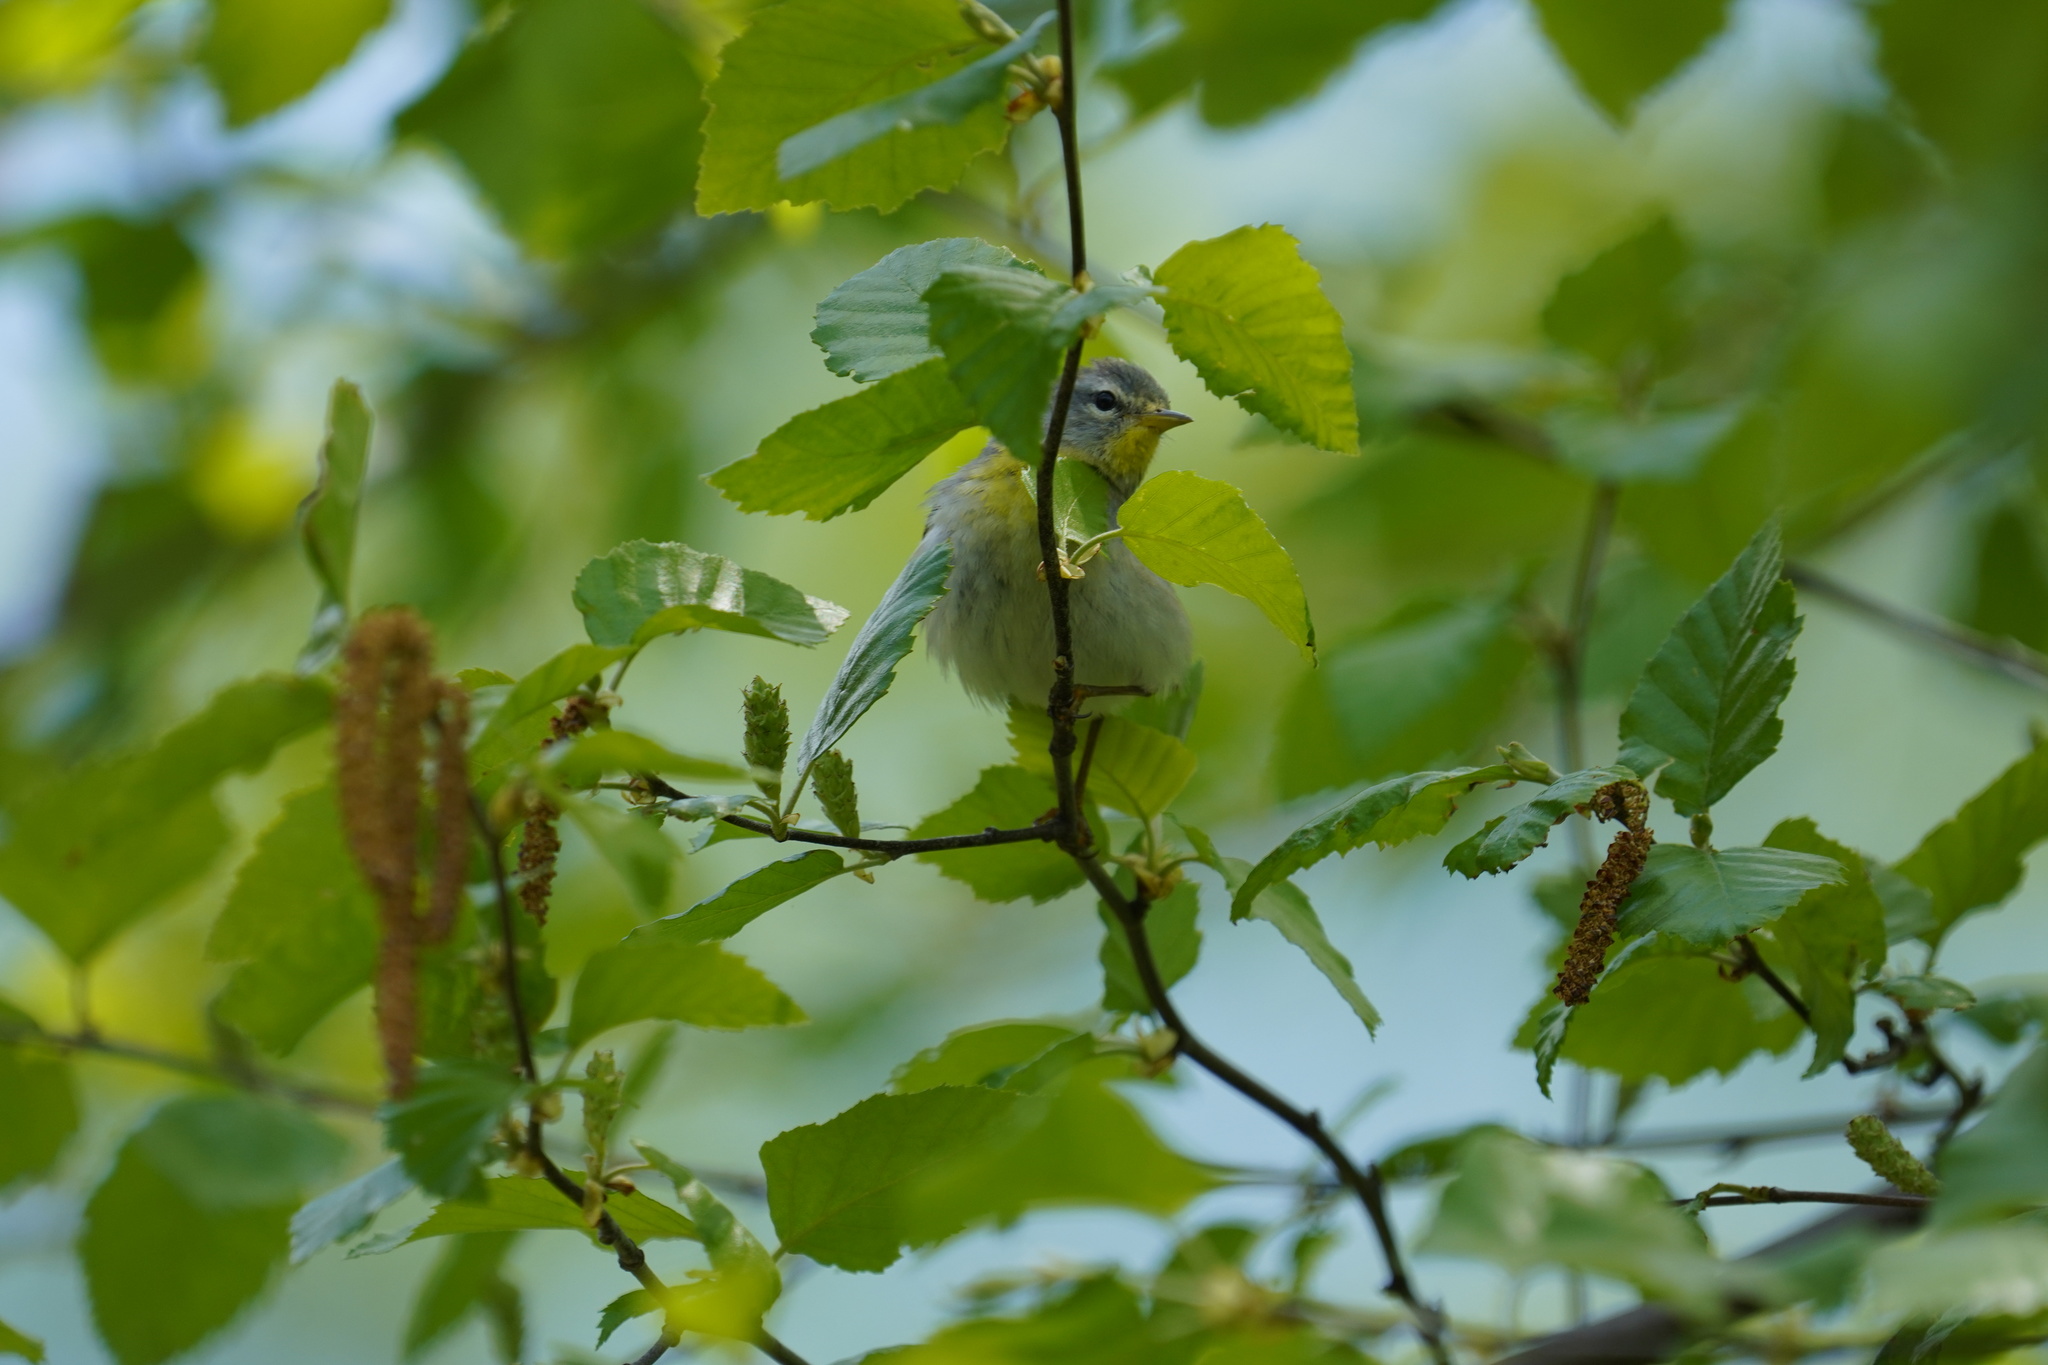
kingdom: Animalia
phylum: Chordata
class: Aves
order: Passeriformes
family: Parulidae
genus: Setophaga
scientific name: Setophaga americana
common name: Northern parula
